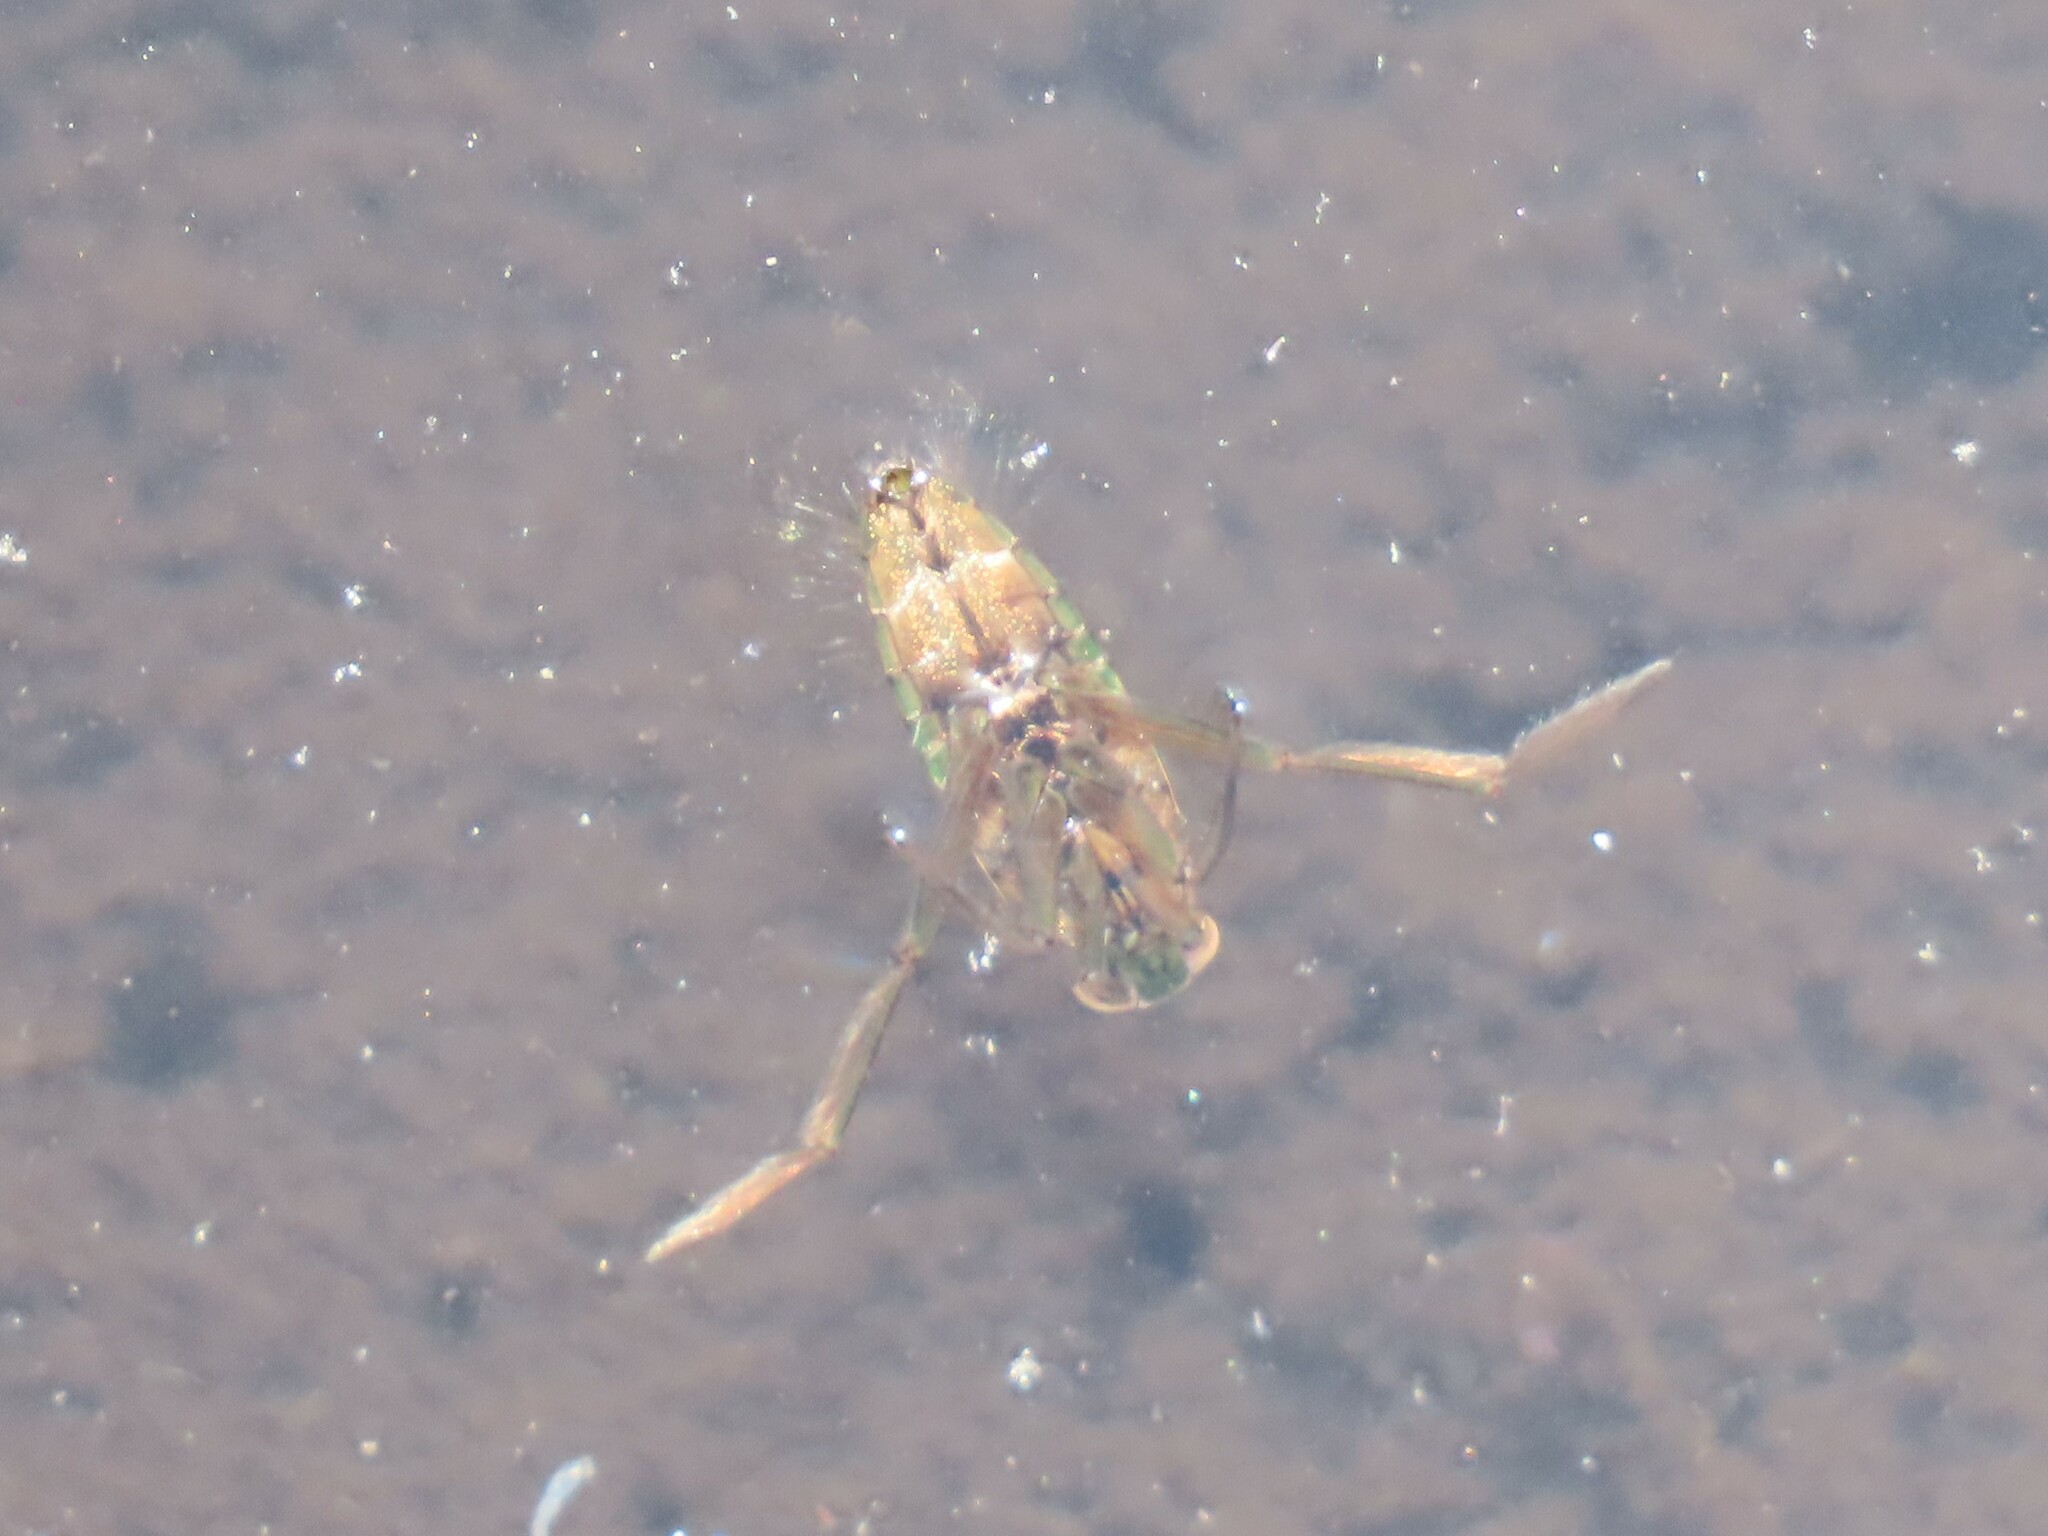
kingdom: Animalia
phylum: Arthropoda
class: Insecta
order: Hemiptera
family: Notonectidae
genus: Notonecta
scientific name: Notonecta
